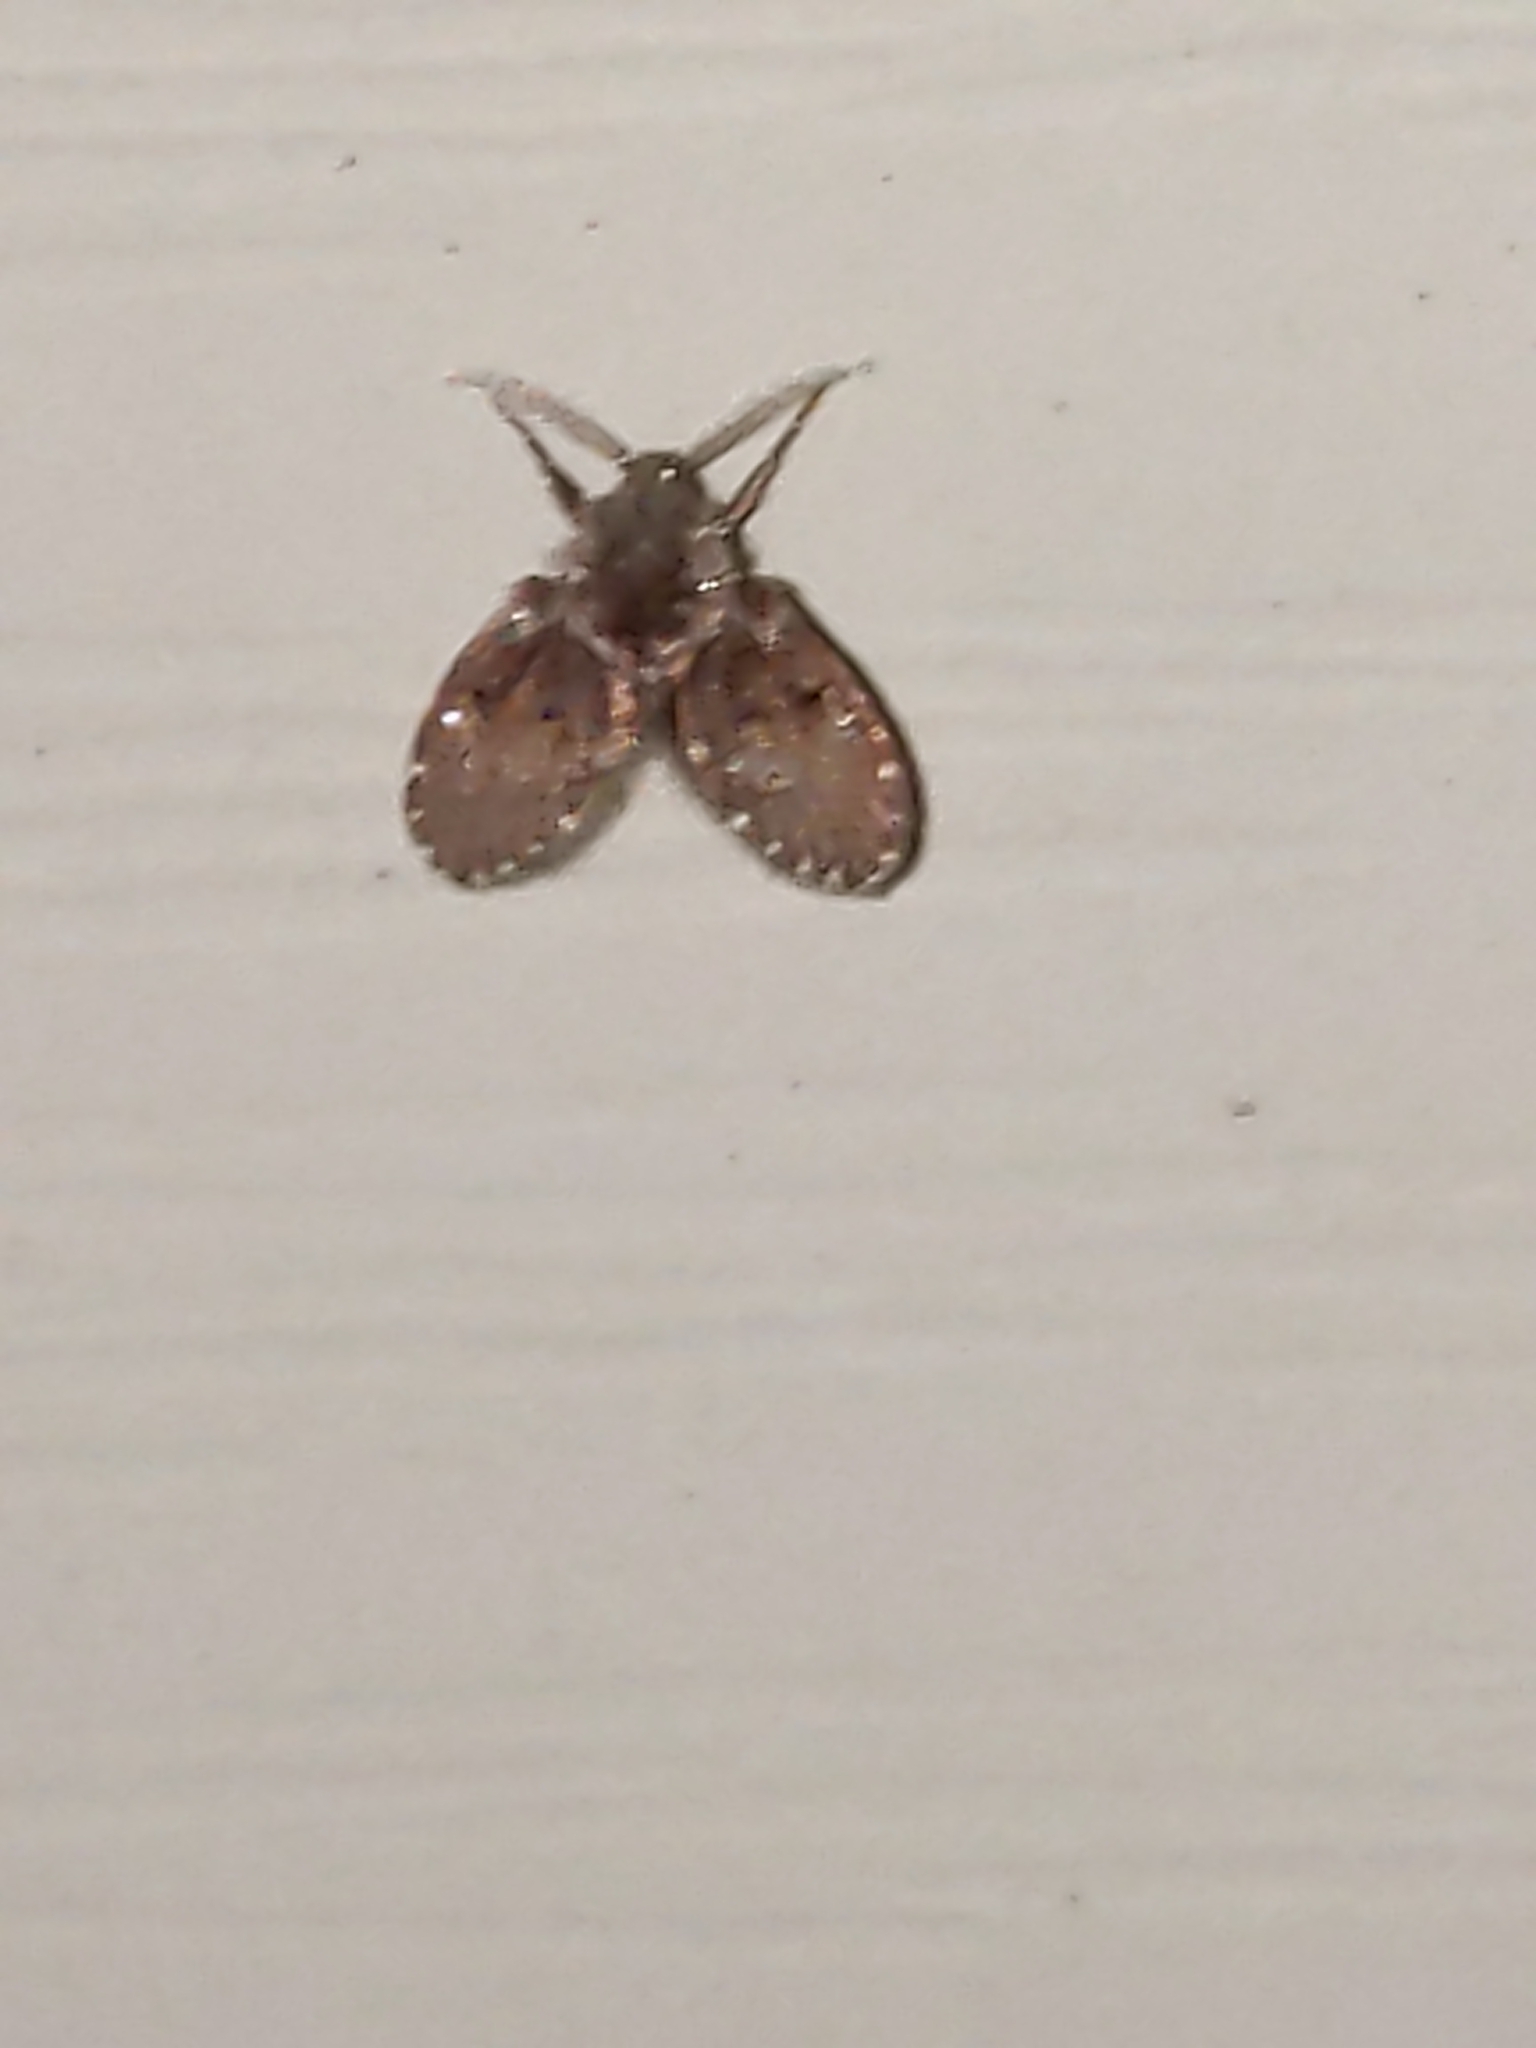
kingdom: Animalia
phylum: Arthropoda
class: Insecta
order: Diptera
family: Psychodidae
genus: Clogmia
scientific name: Clogmia albipunctatus
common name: White-spotted moth fly
